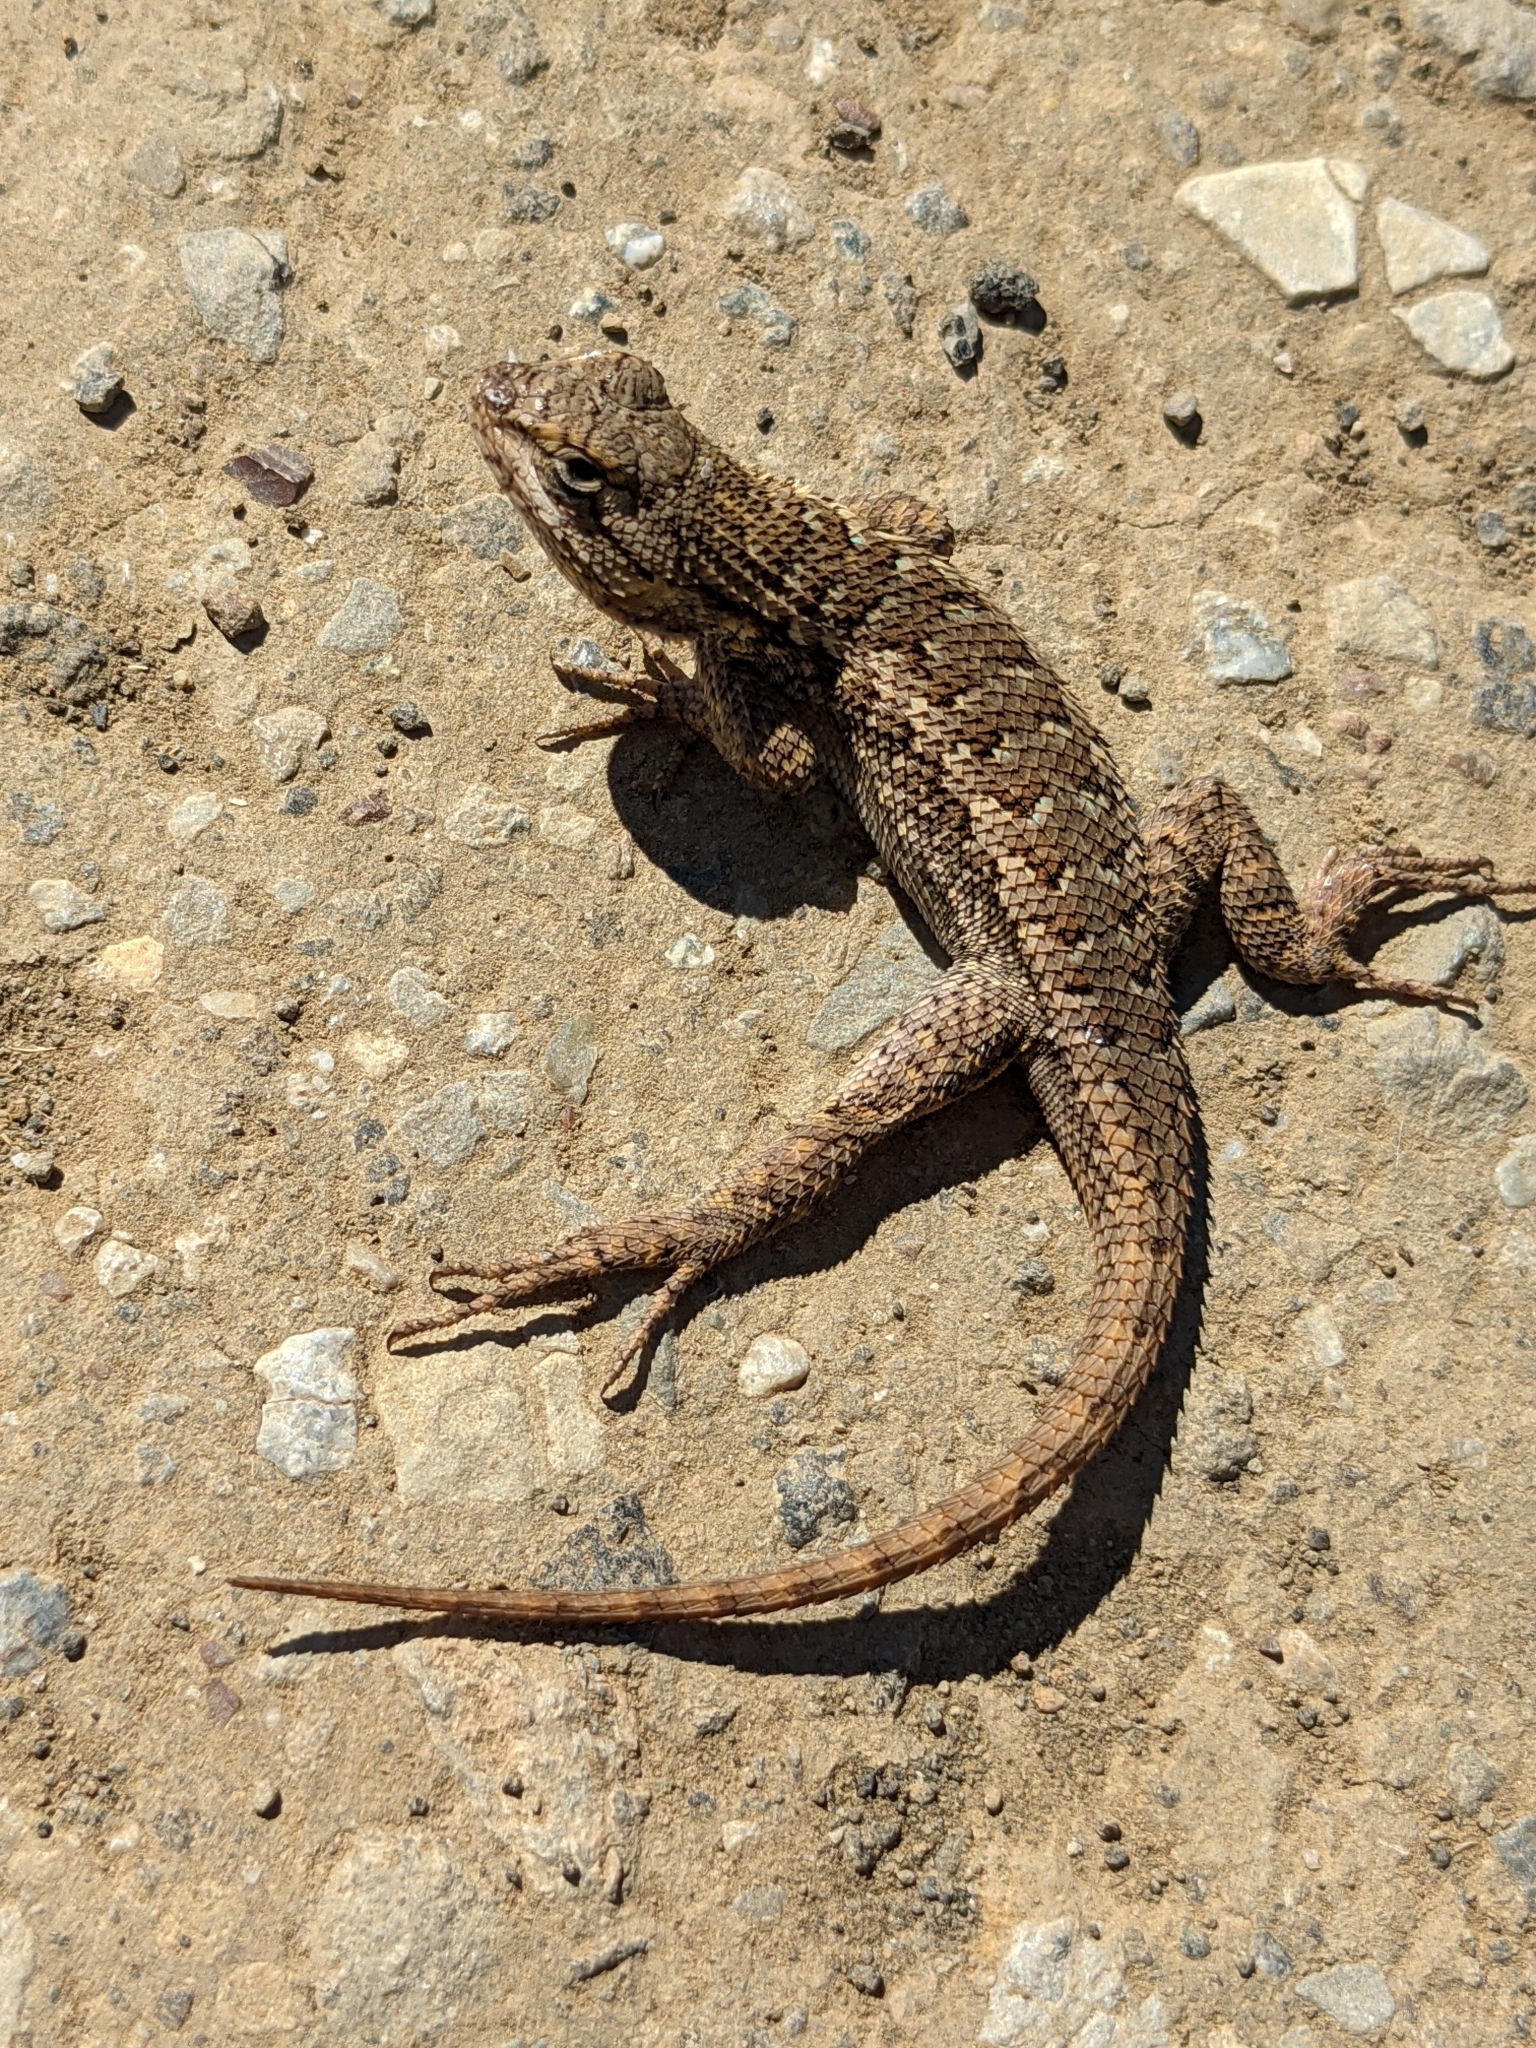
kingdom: Animalia
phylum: Chordata
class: Squamata
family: Phrynosomatidae
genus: Sceloporus
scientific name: Sceloporus occidentalis
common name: Western fence lizard
